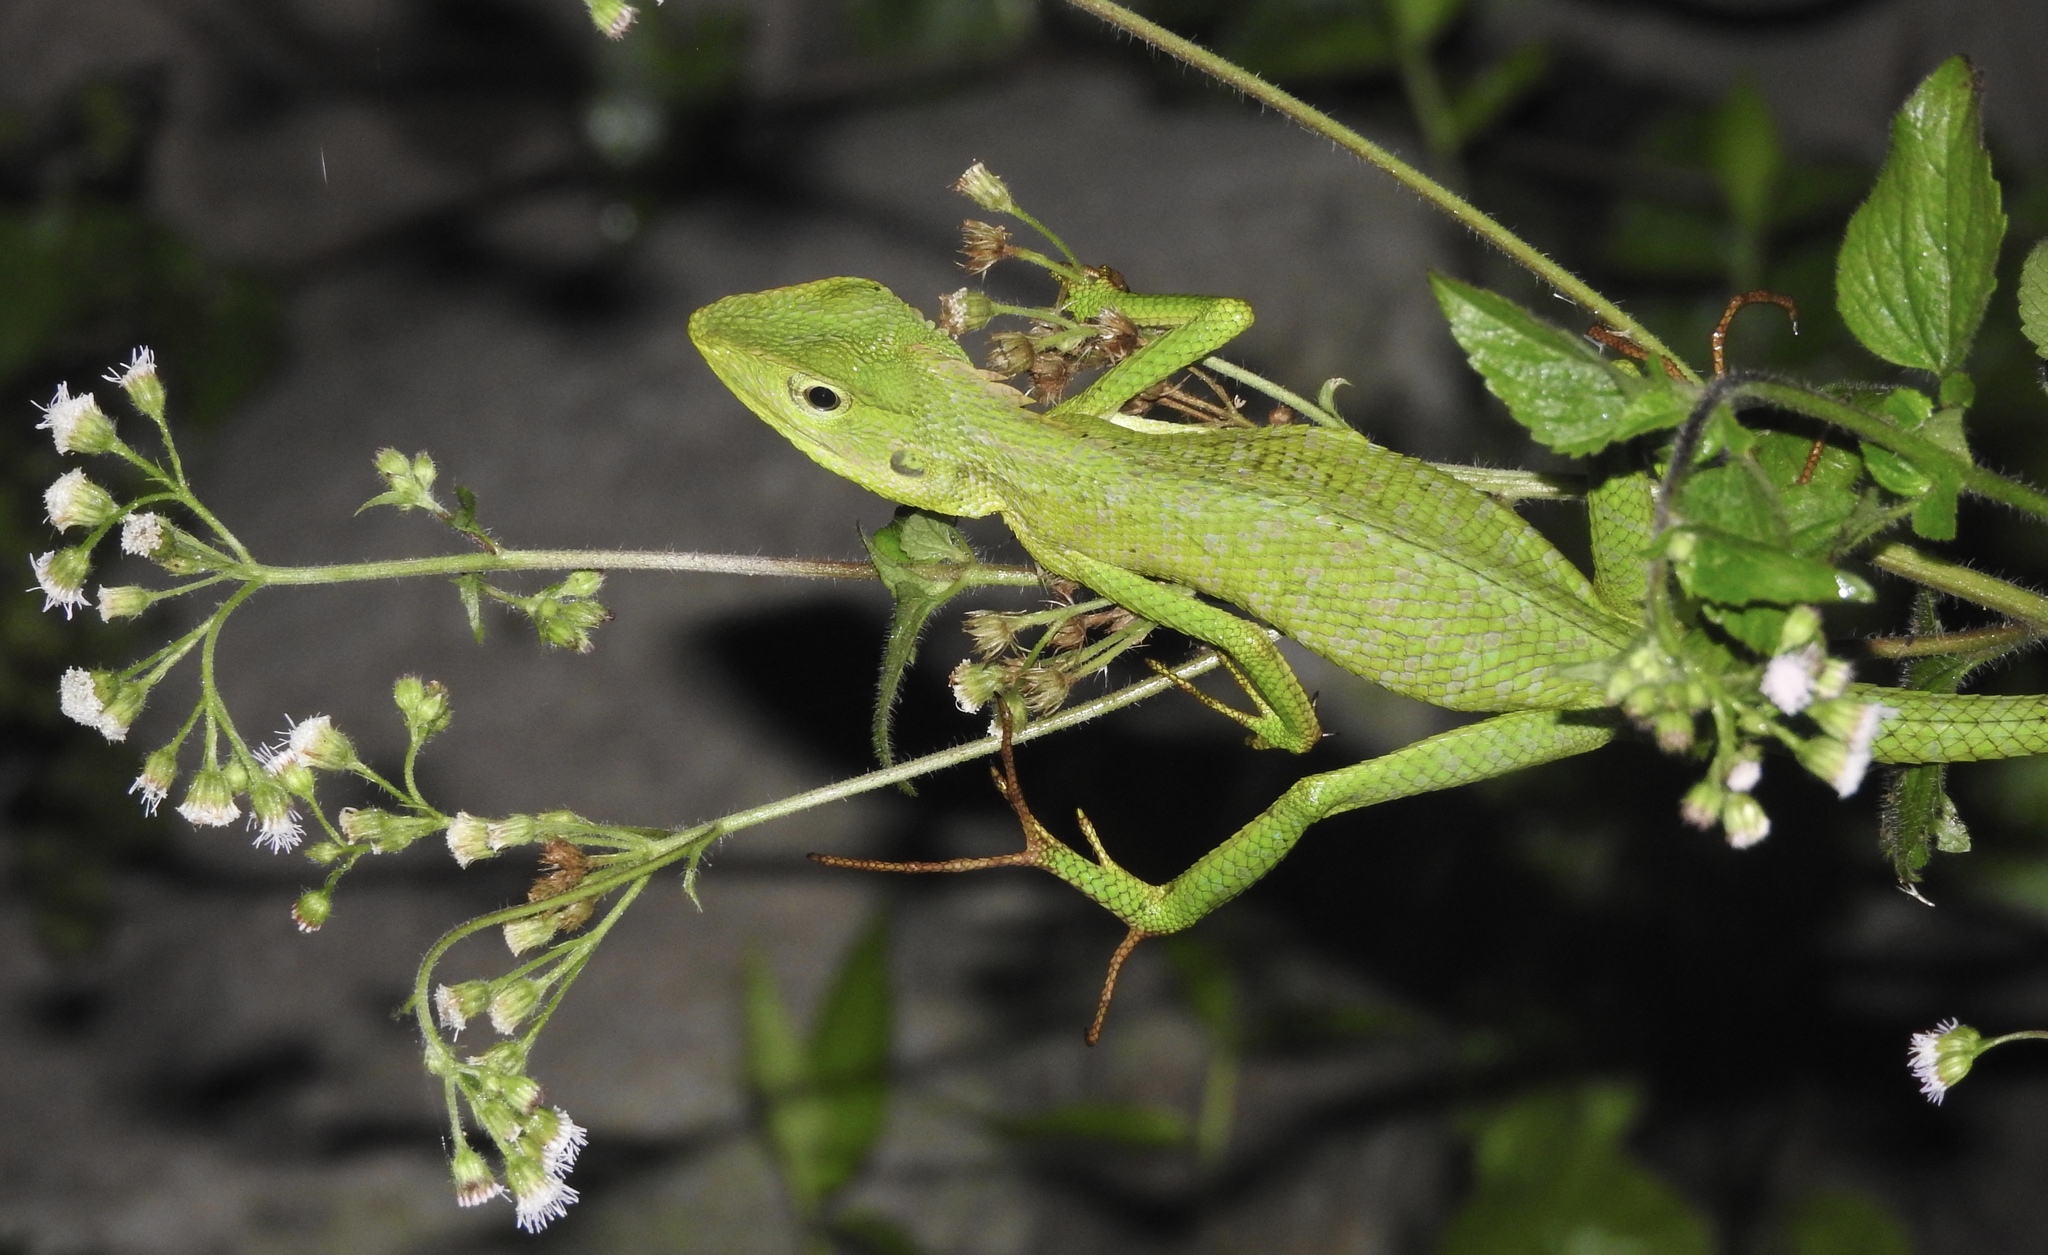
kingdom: Animalia
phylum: Chordata
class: Squamata
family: Agamidae
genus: Bronchocela
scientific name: Bronchocela jubata
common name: Maned forest lizard
